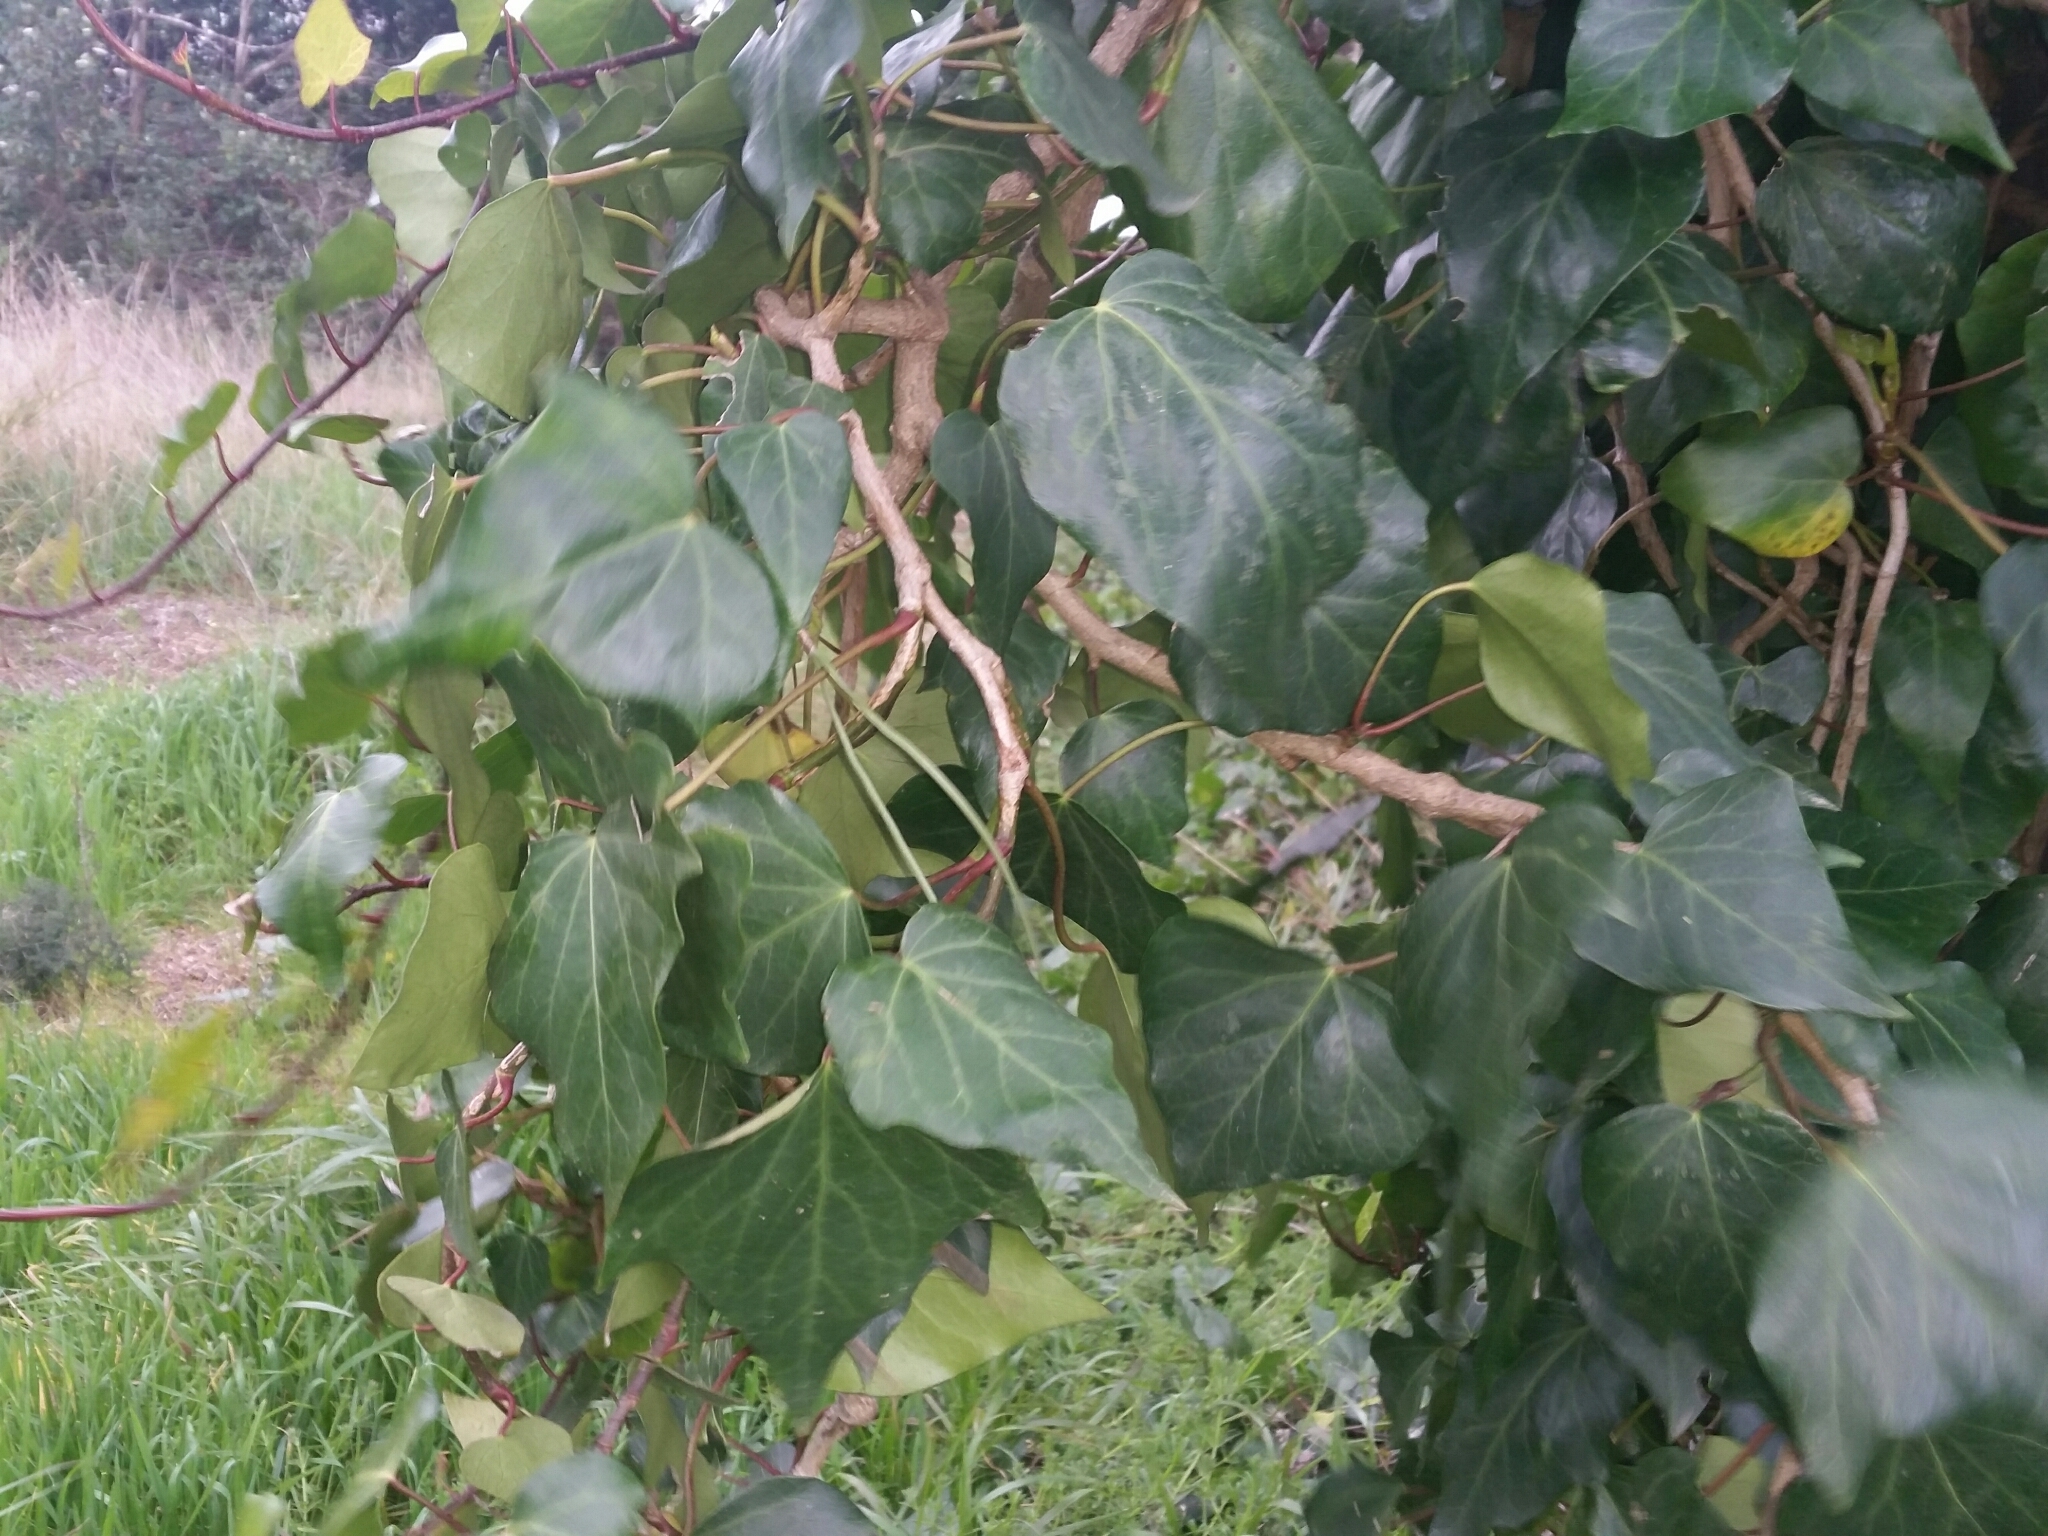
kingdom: Plantae
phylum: Tracheophyta
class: Magnoliopsida
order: Apiales
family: Araliaceae
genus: Hedera
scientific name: Hedera helix
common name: Ivy
